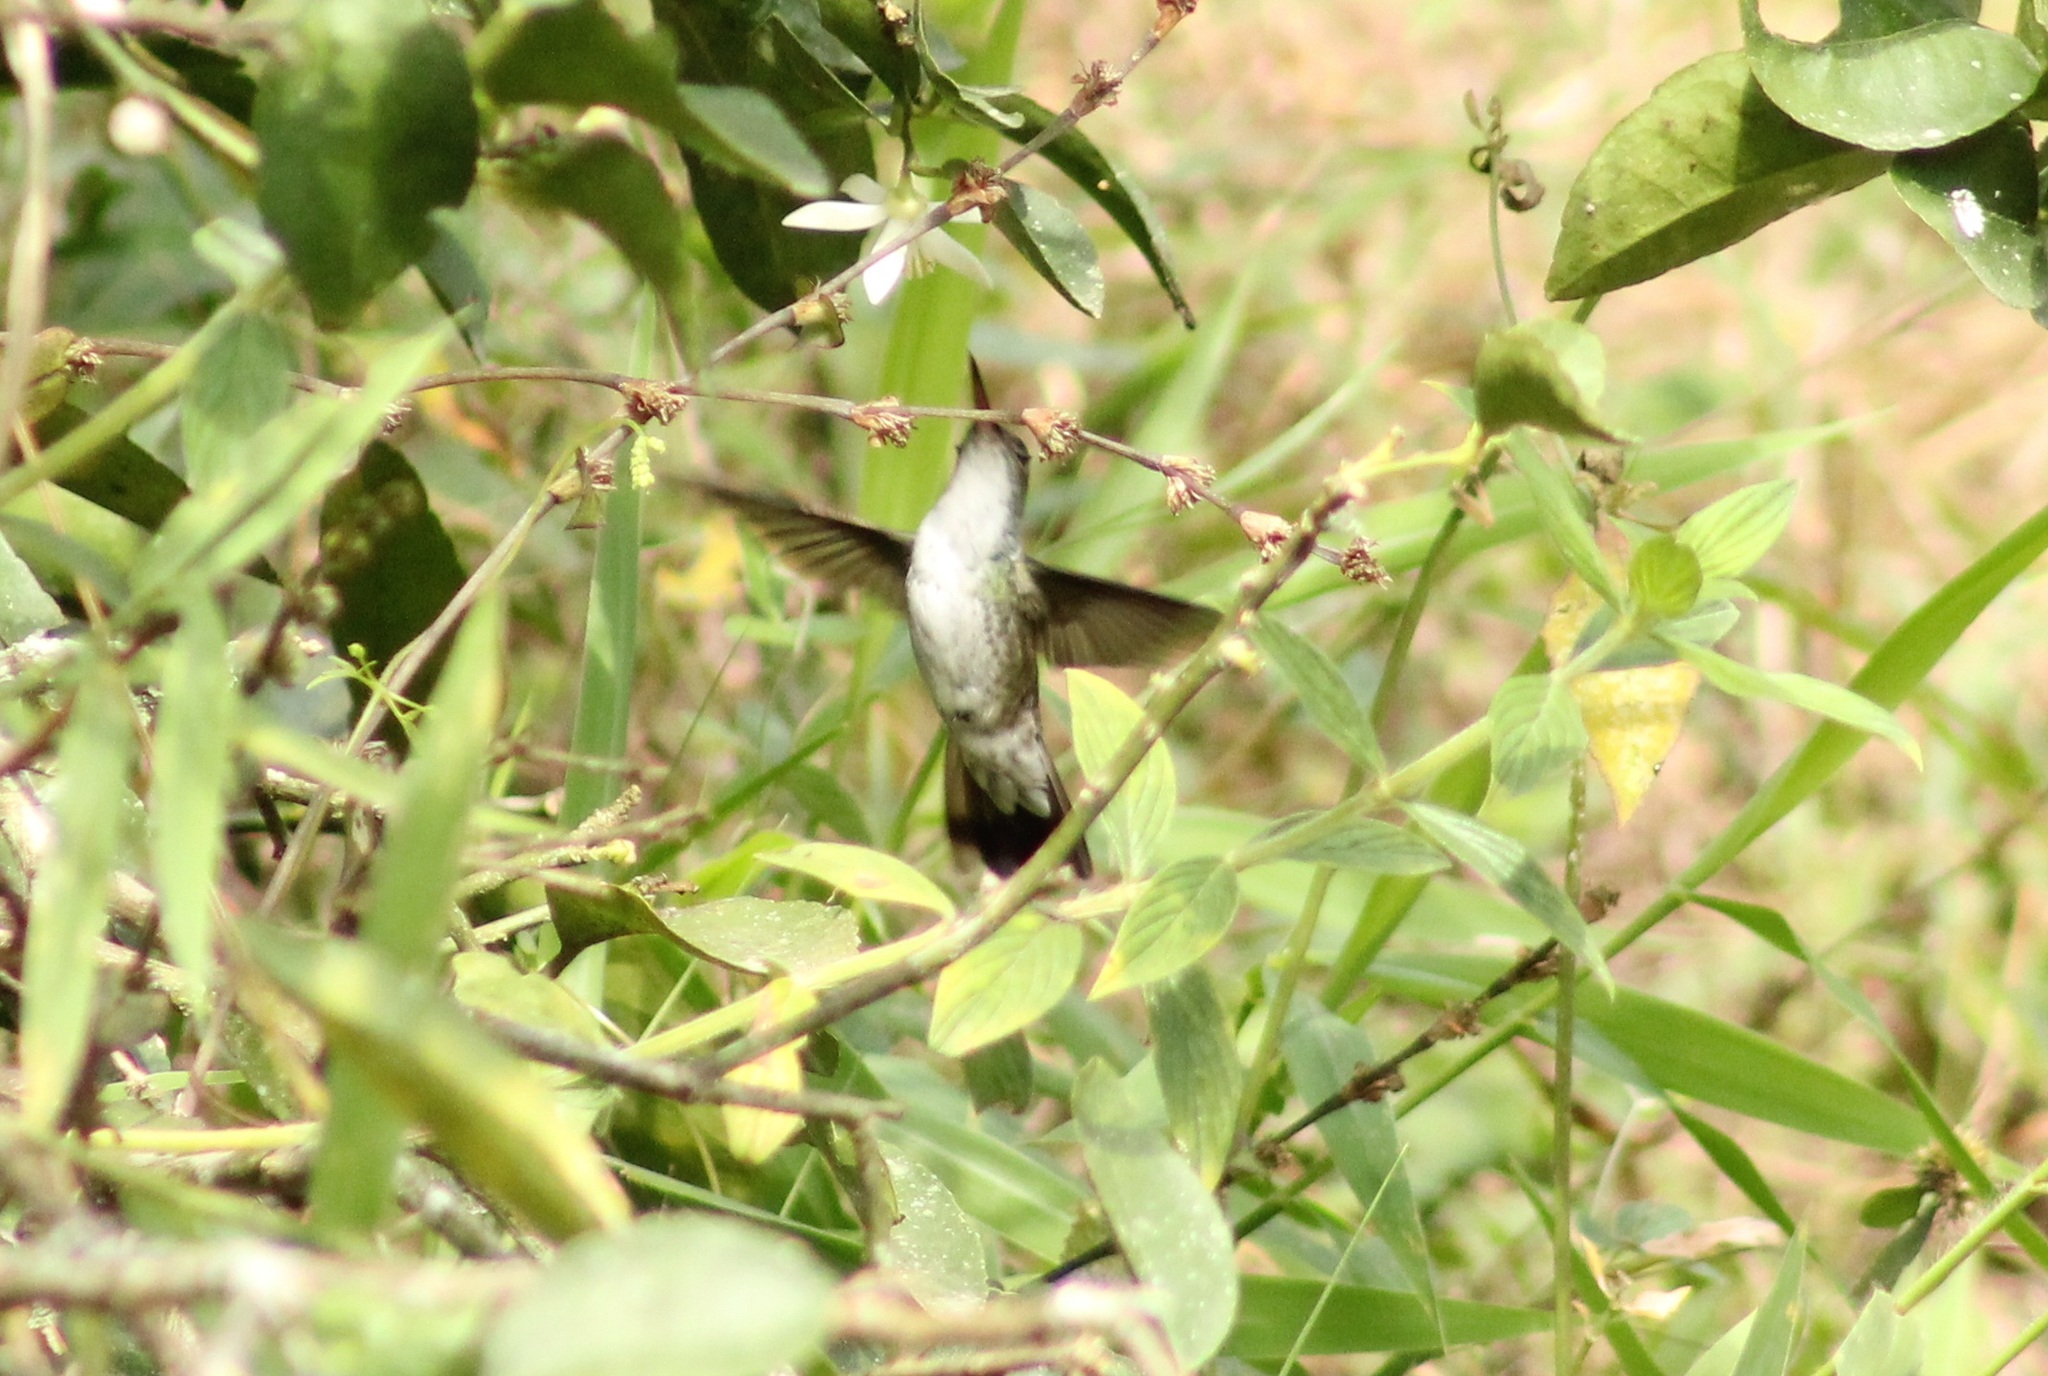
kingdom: Animalia
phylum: Chordata
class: Aves
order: Apodiformes
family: Trochilidae
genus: Chlorestes
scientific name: Chlorestes candida
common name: White-bellied emerald
